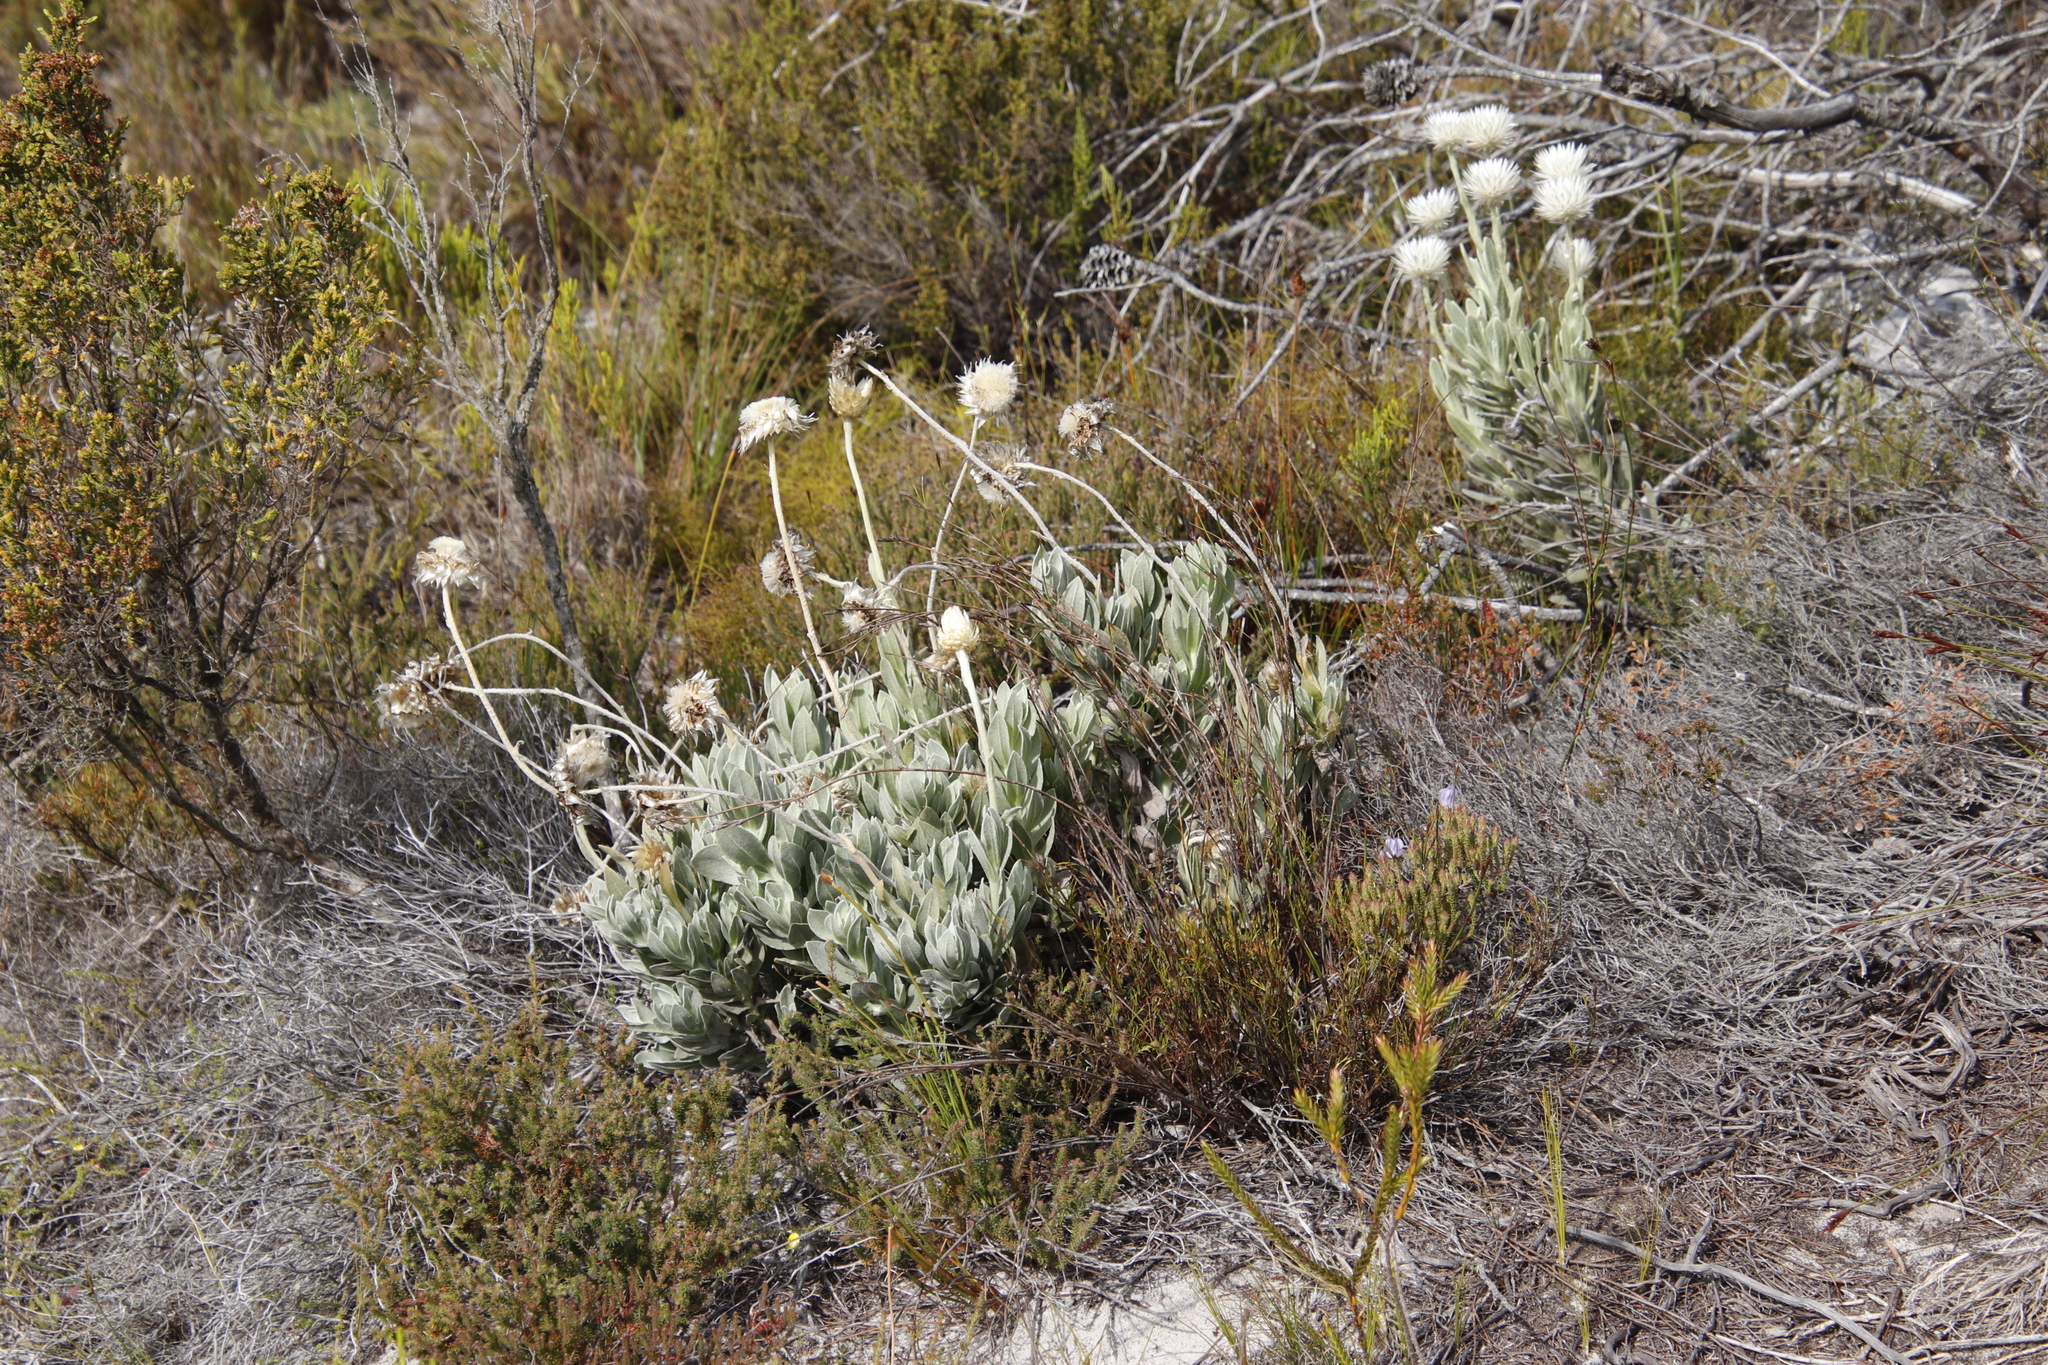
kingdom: Plantae
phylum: Tracheophyta
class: Magnoliopsida
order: Asterales
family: Asteraceae
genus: Syncarpha
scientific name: Syncarpha speciosissima
